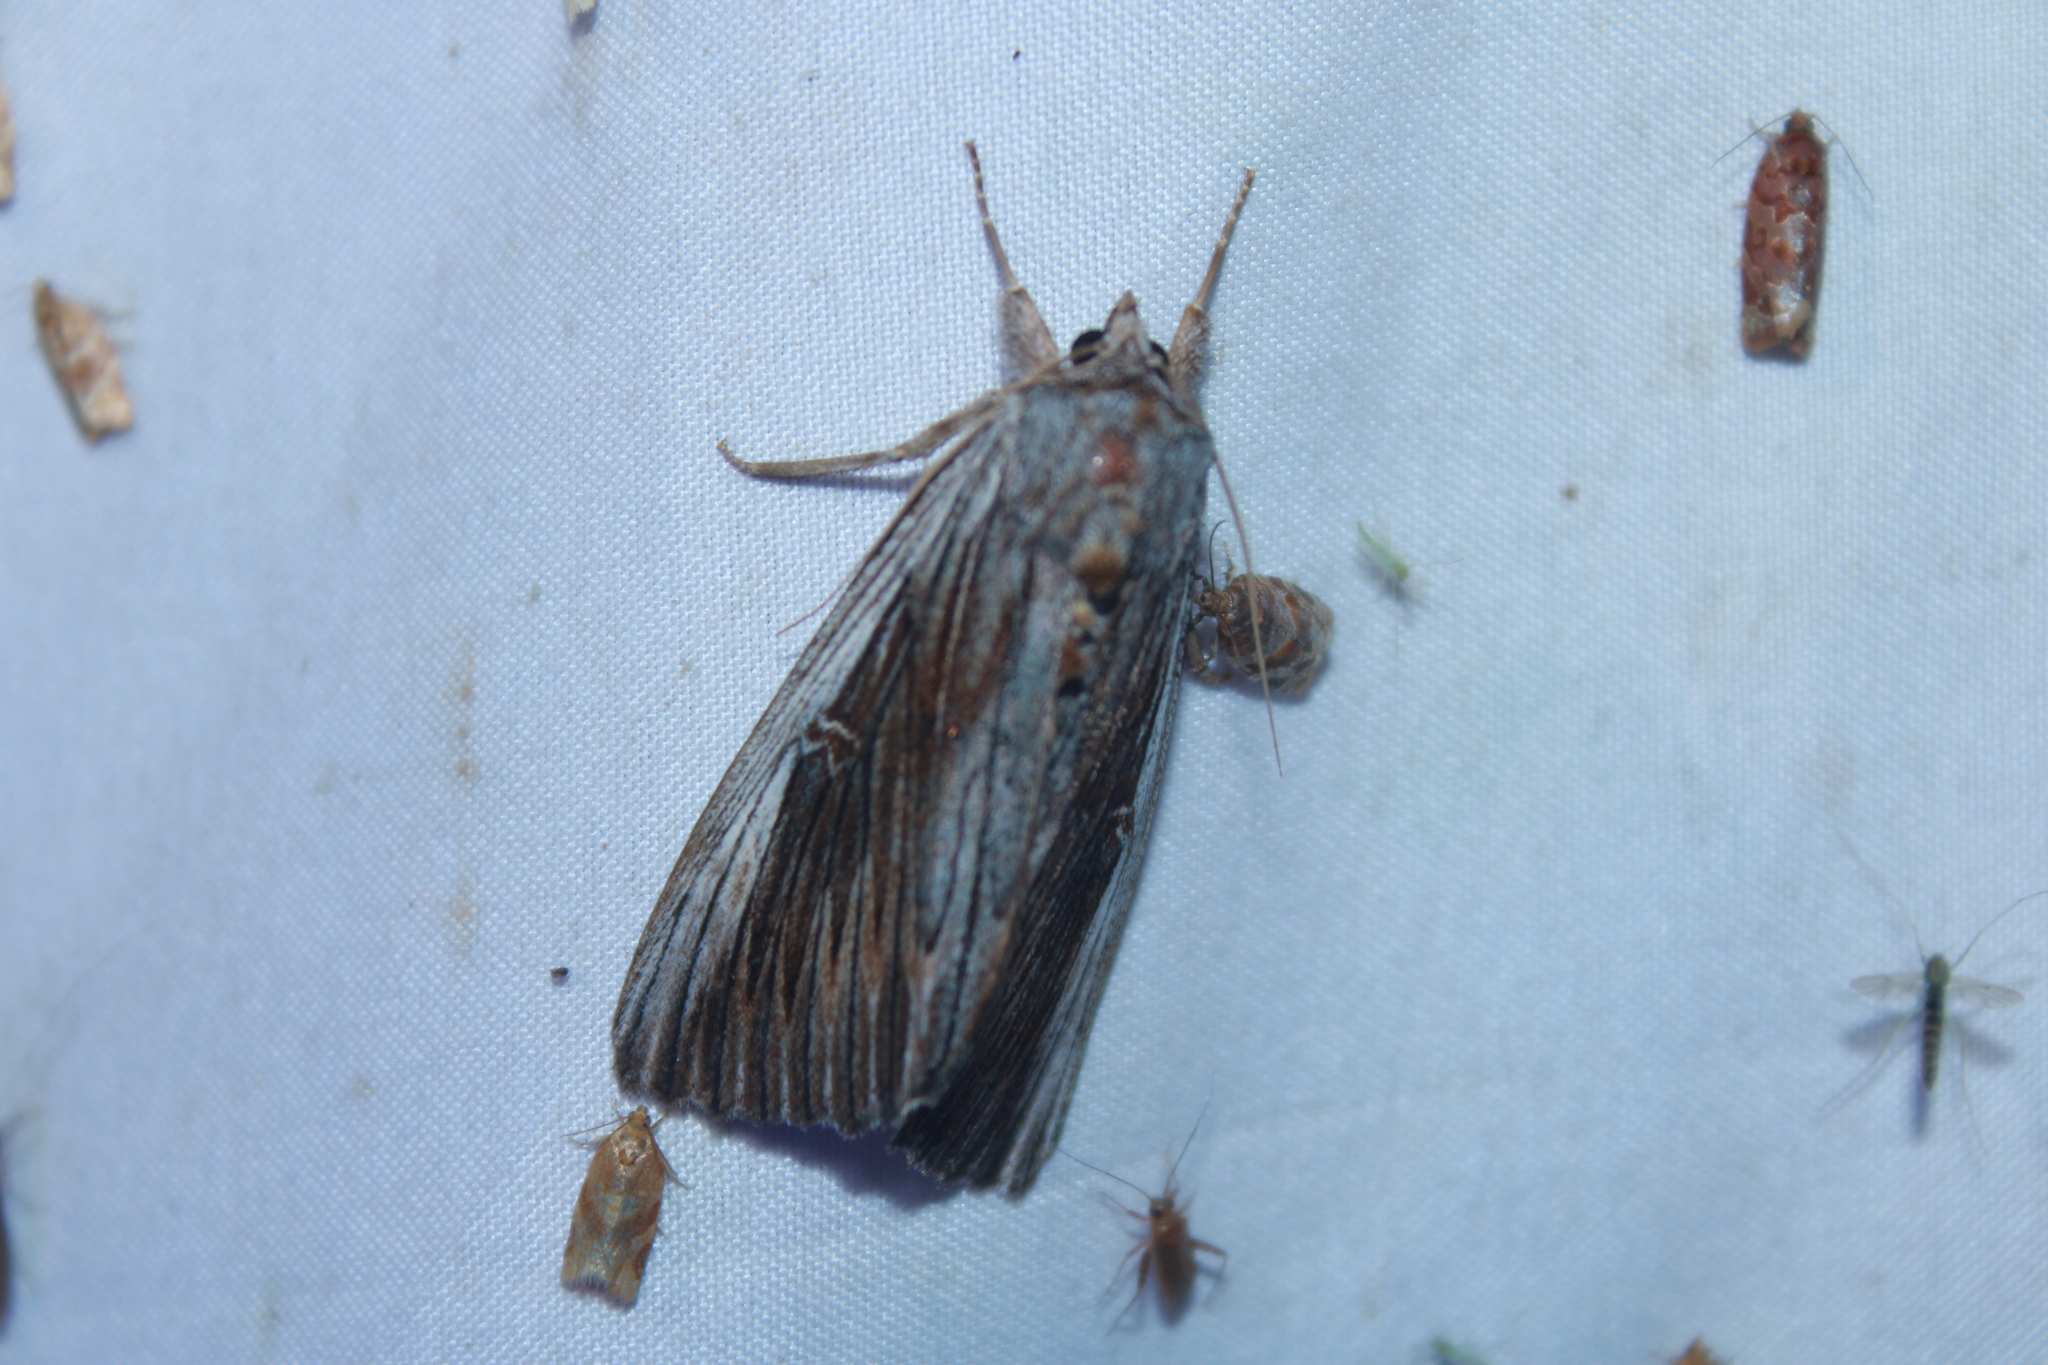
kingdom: Animalia
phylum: Arthropoda
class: Insecta
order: Lepidoptera
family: Erebidae
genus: Catocala
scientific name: Catocala herodias
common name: Pine barrens underwing
